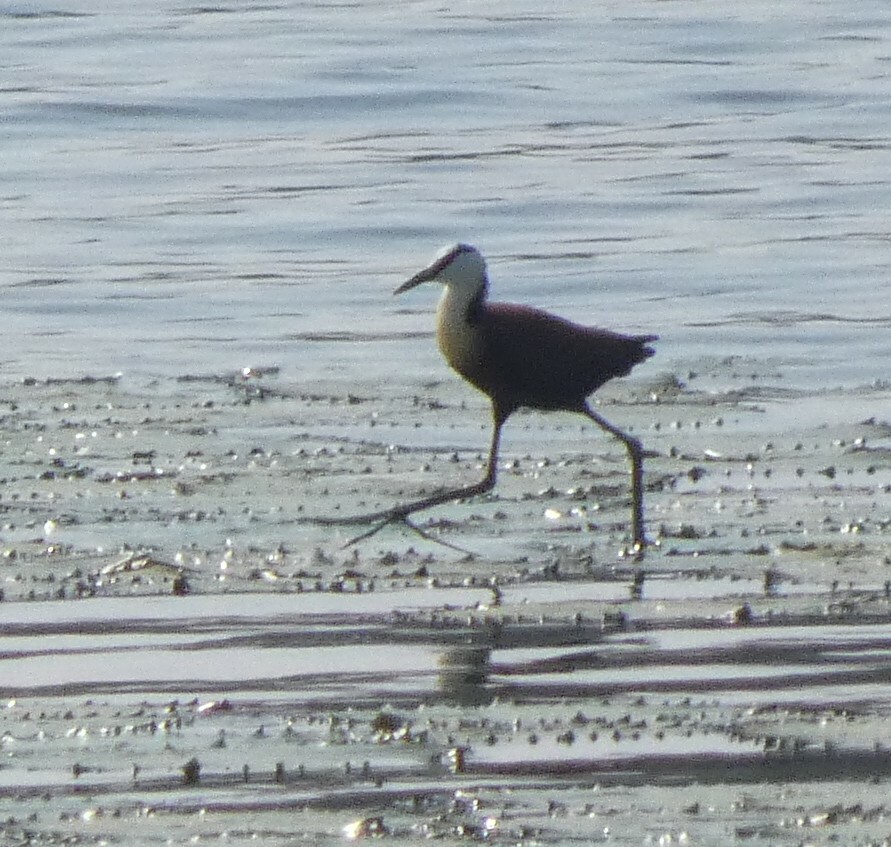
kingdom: Animalia
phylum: Chordata
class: Aves
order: Charadriiformes
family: Jacanidae
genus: Actophilornis
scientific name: Actophilornis africanus
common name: African jacana
